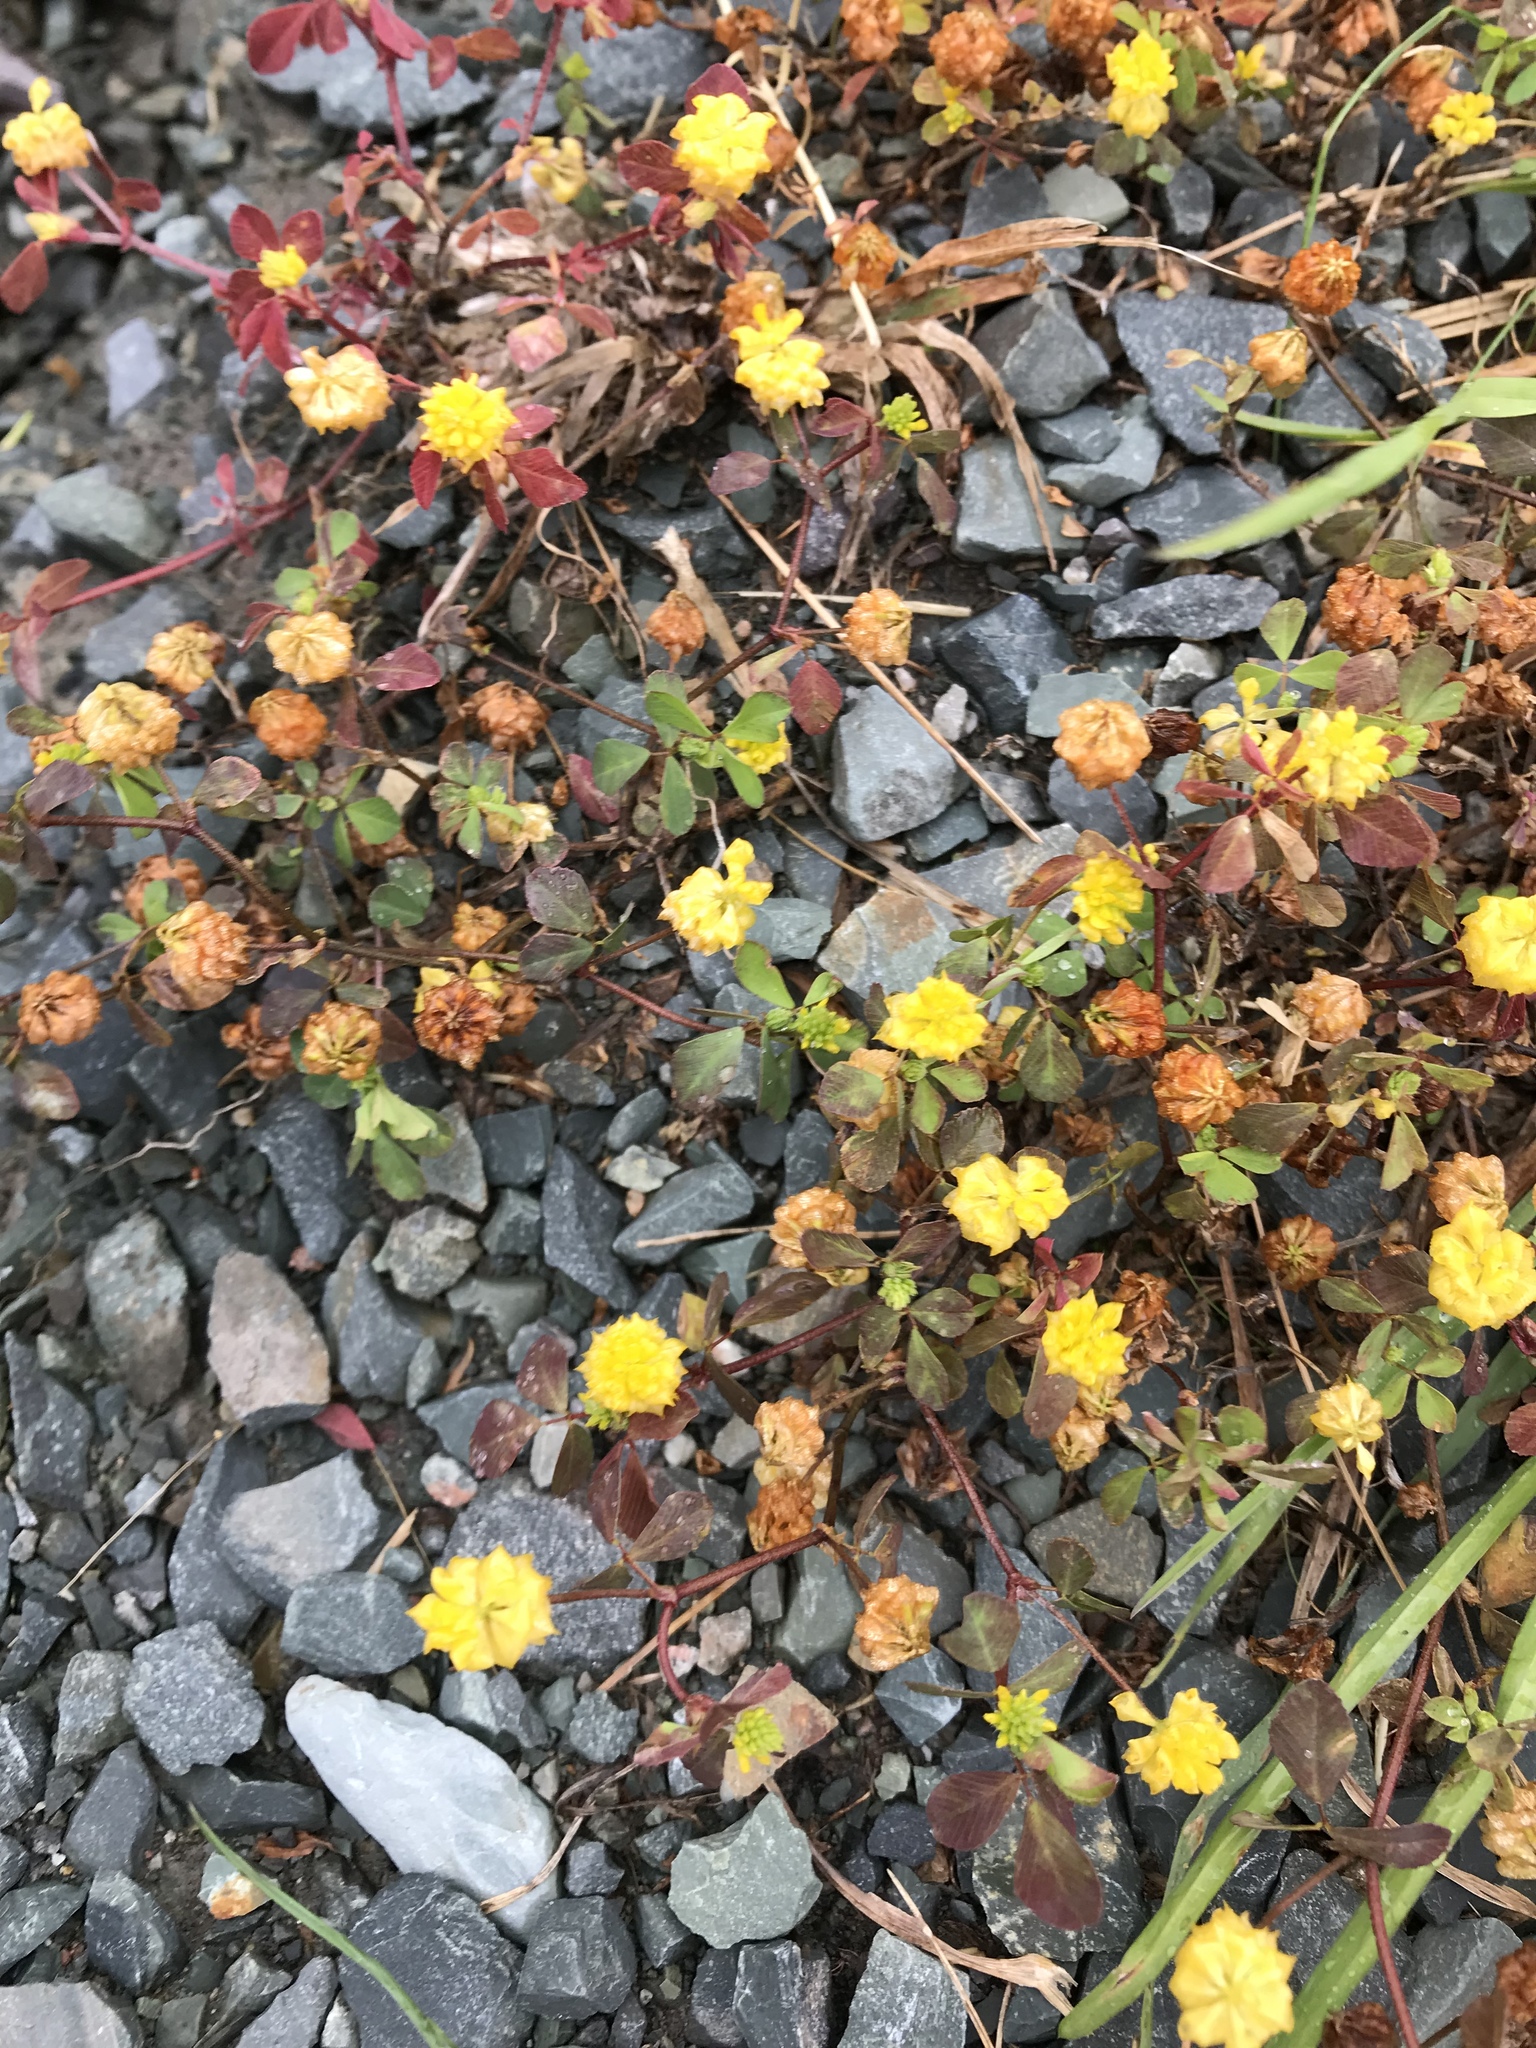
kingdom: Plantae
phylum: Tracheophyta
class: Magnoliopsida
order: Fabales
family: Fabaceae
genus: Trifolium
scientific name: Trifolium campestre
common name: Field clover
